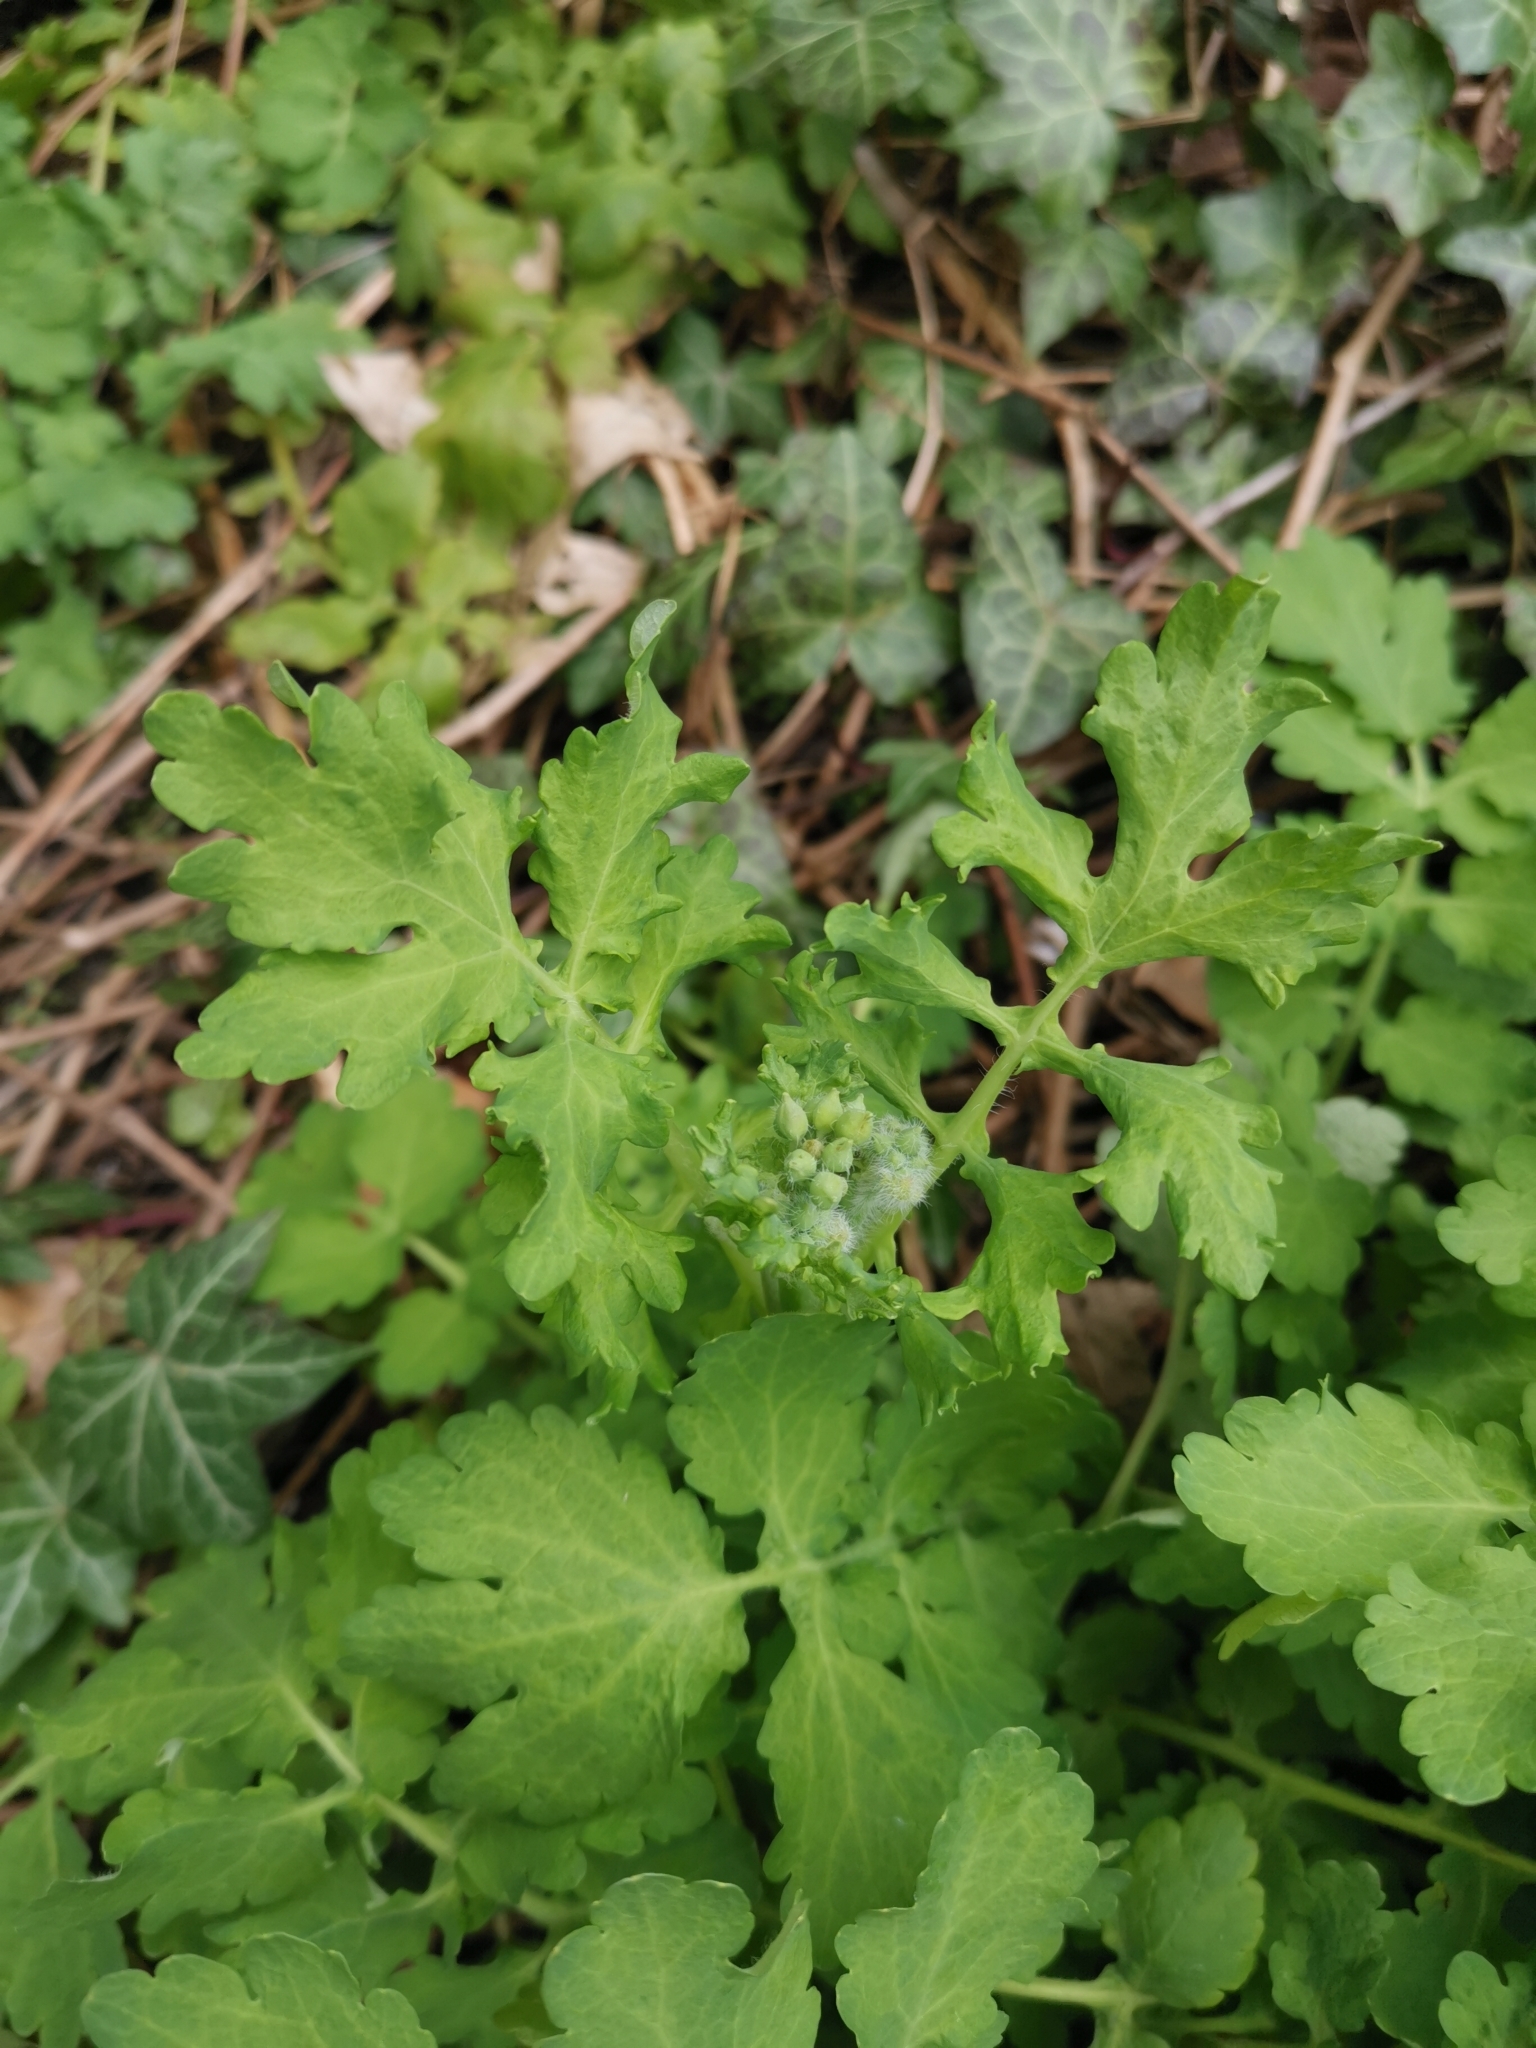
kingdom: Plantae
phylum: Tracheophyta
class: Magnoliopsida
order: Ranunculales
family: Papaveraceae
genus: Chelidonium
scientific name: Chelidonium majus
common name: Greater celandine
